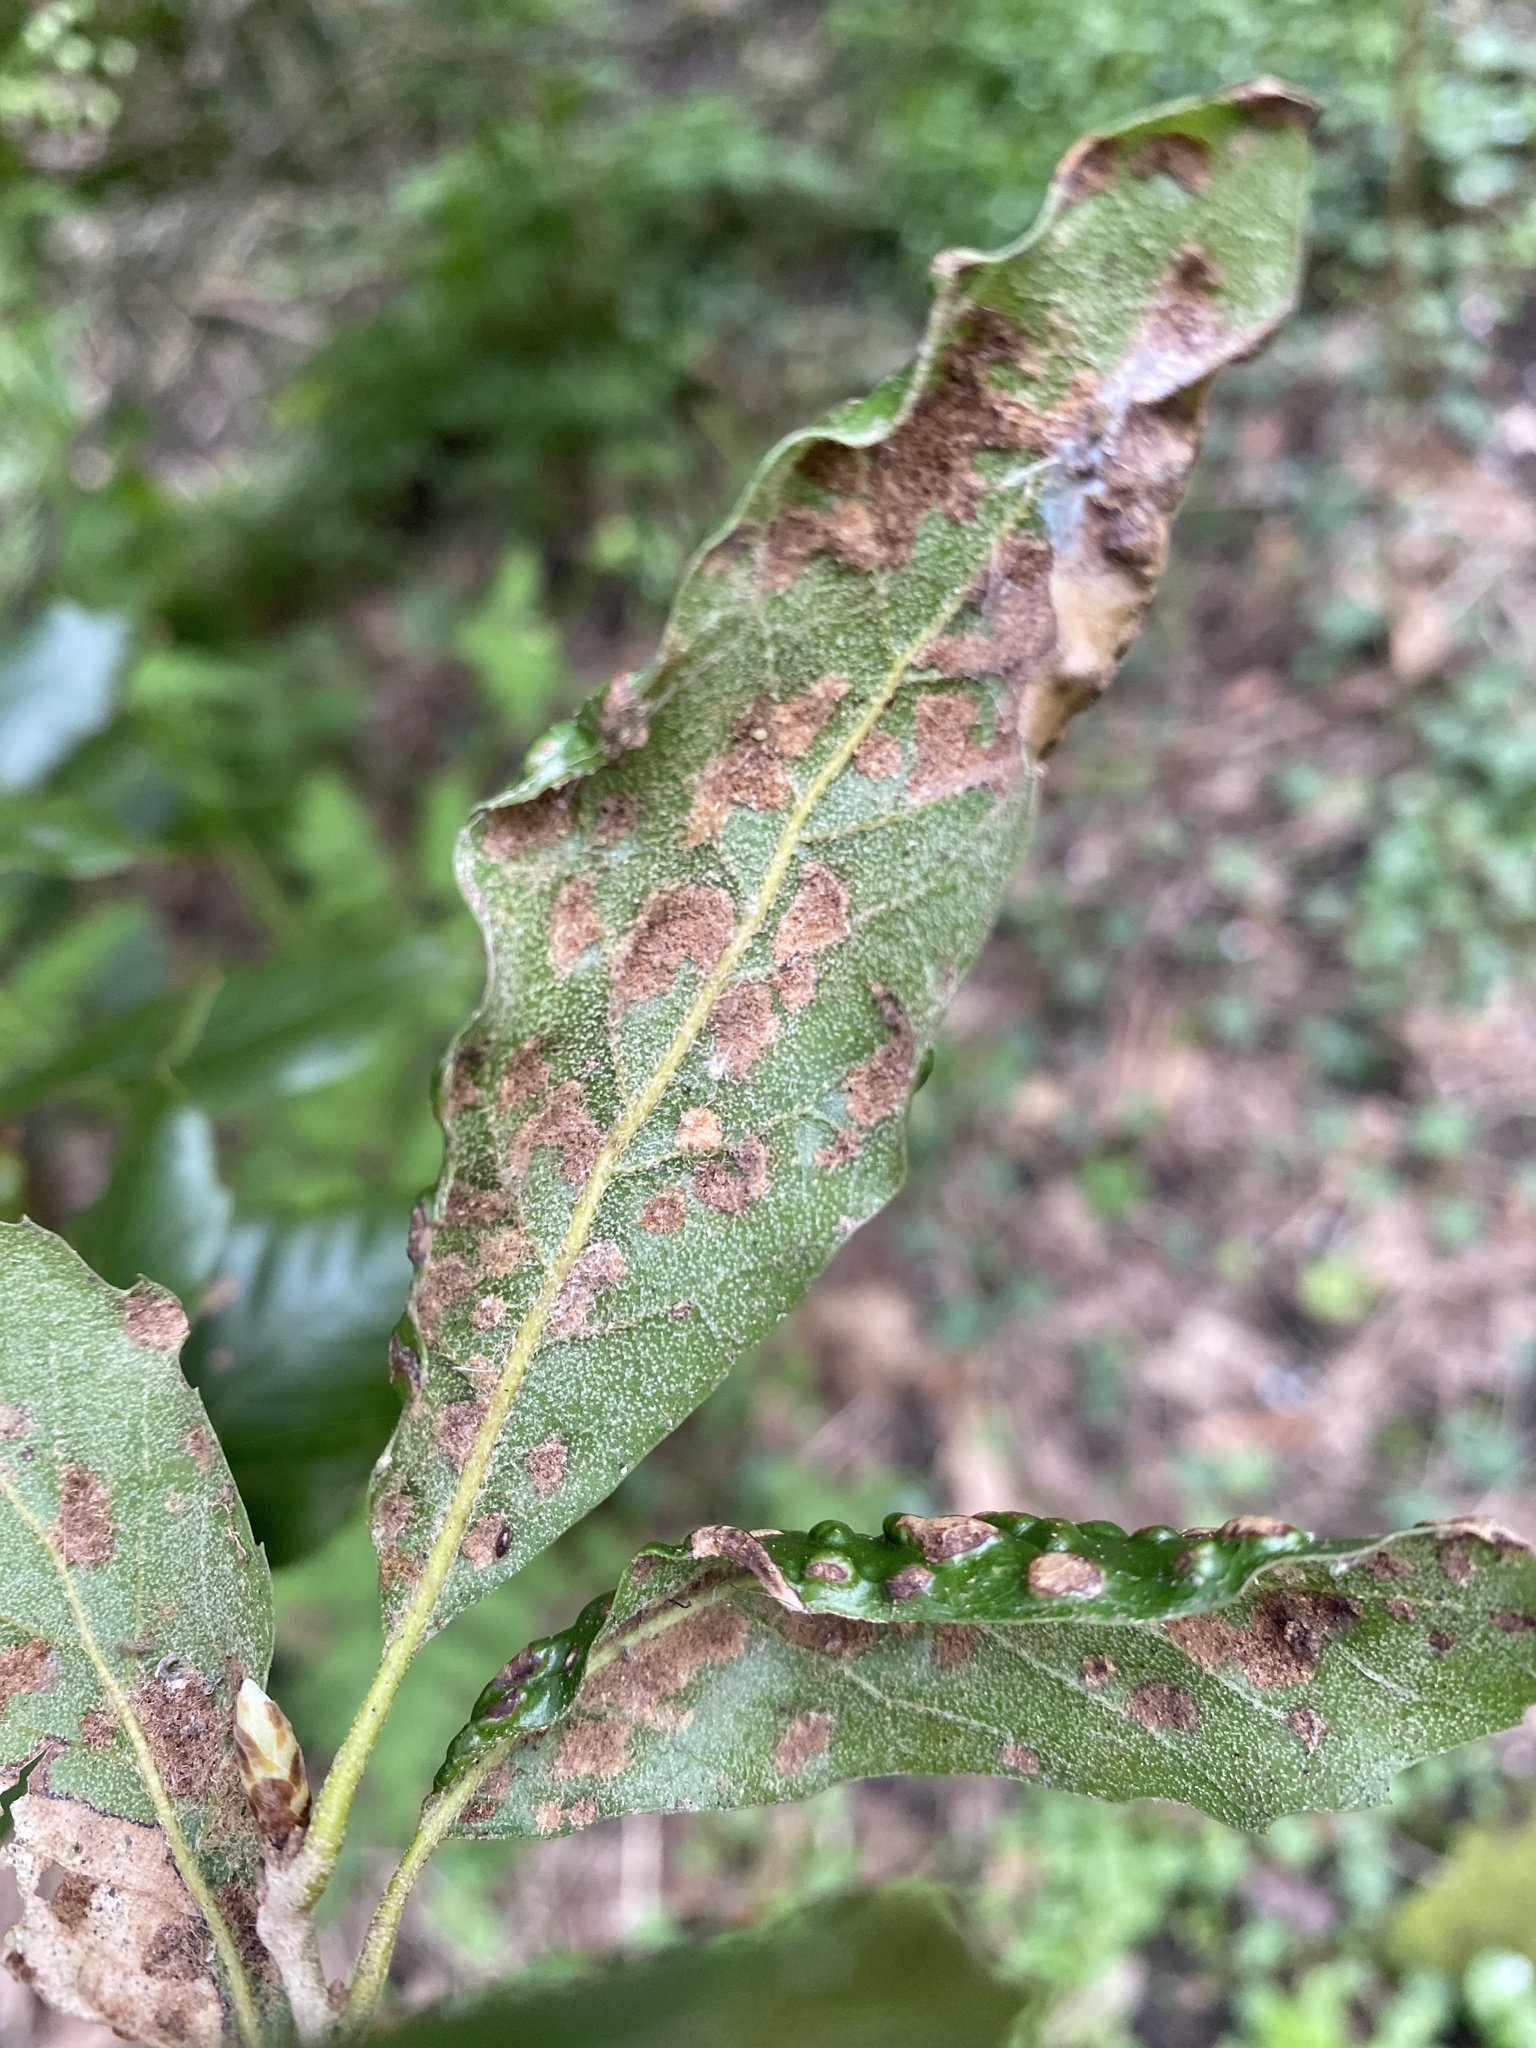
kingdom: Animalia
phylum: Arthropoda
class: Arachnida
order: Trombidiformes
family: Eriophyidae
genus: Aceria
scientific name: Aceria ilicis
